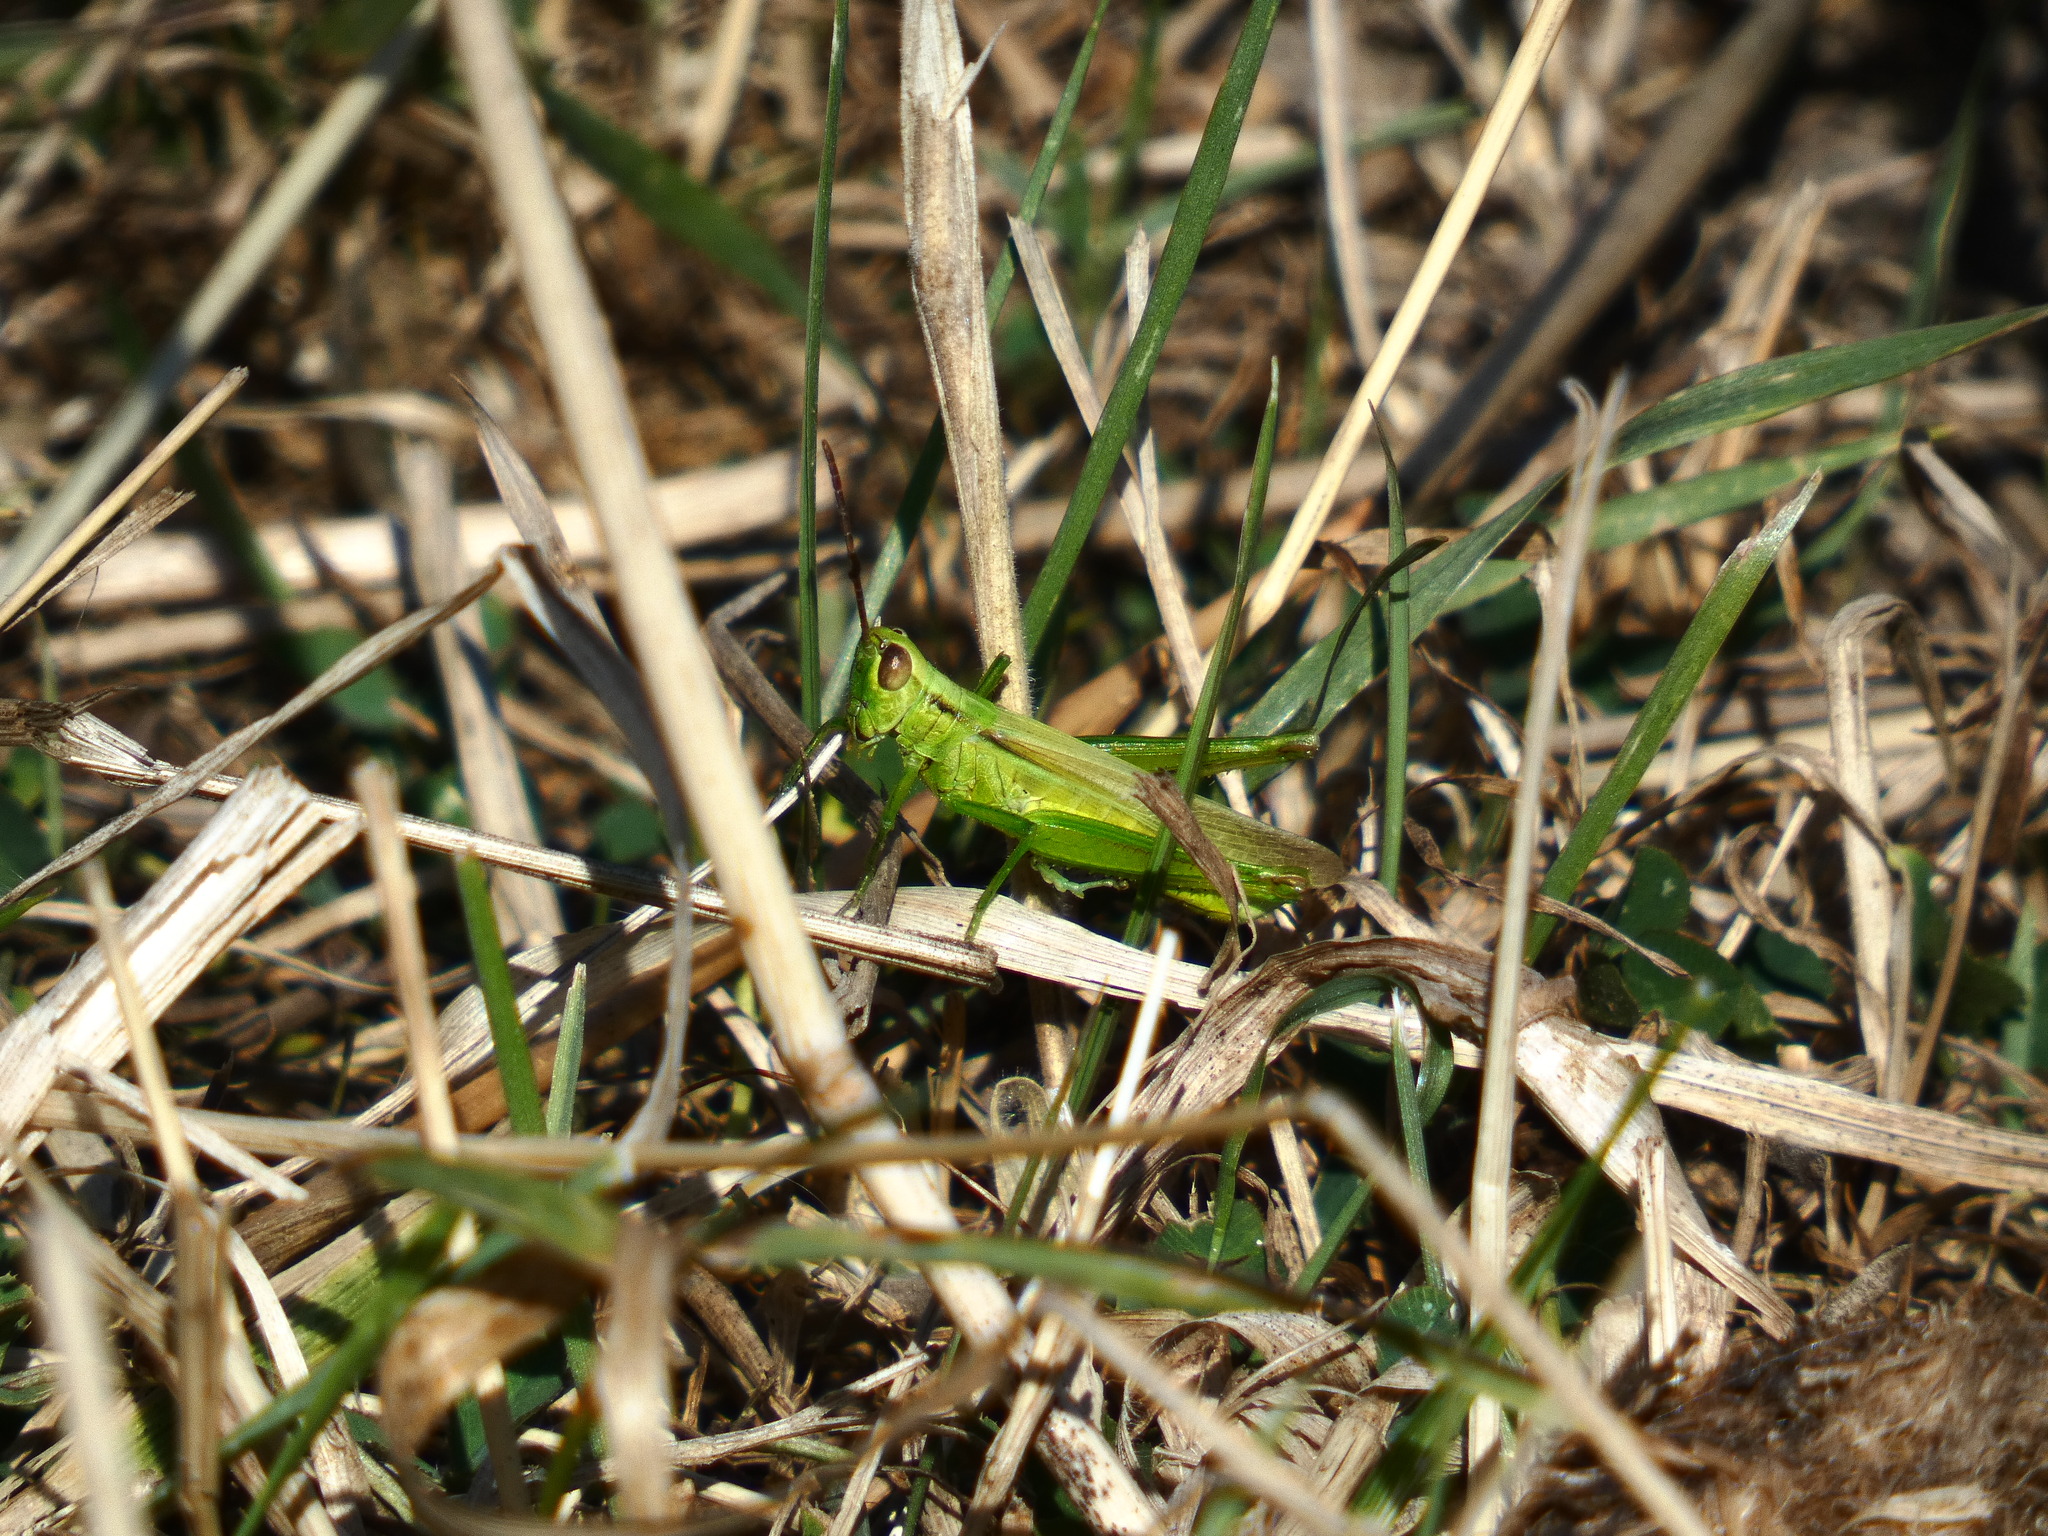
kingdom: Animalia
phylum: Arthropoda
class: Insecta
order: Orthoptera
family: Acrididae
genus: Mecostethus
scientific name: Mecostethus parapleurus
